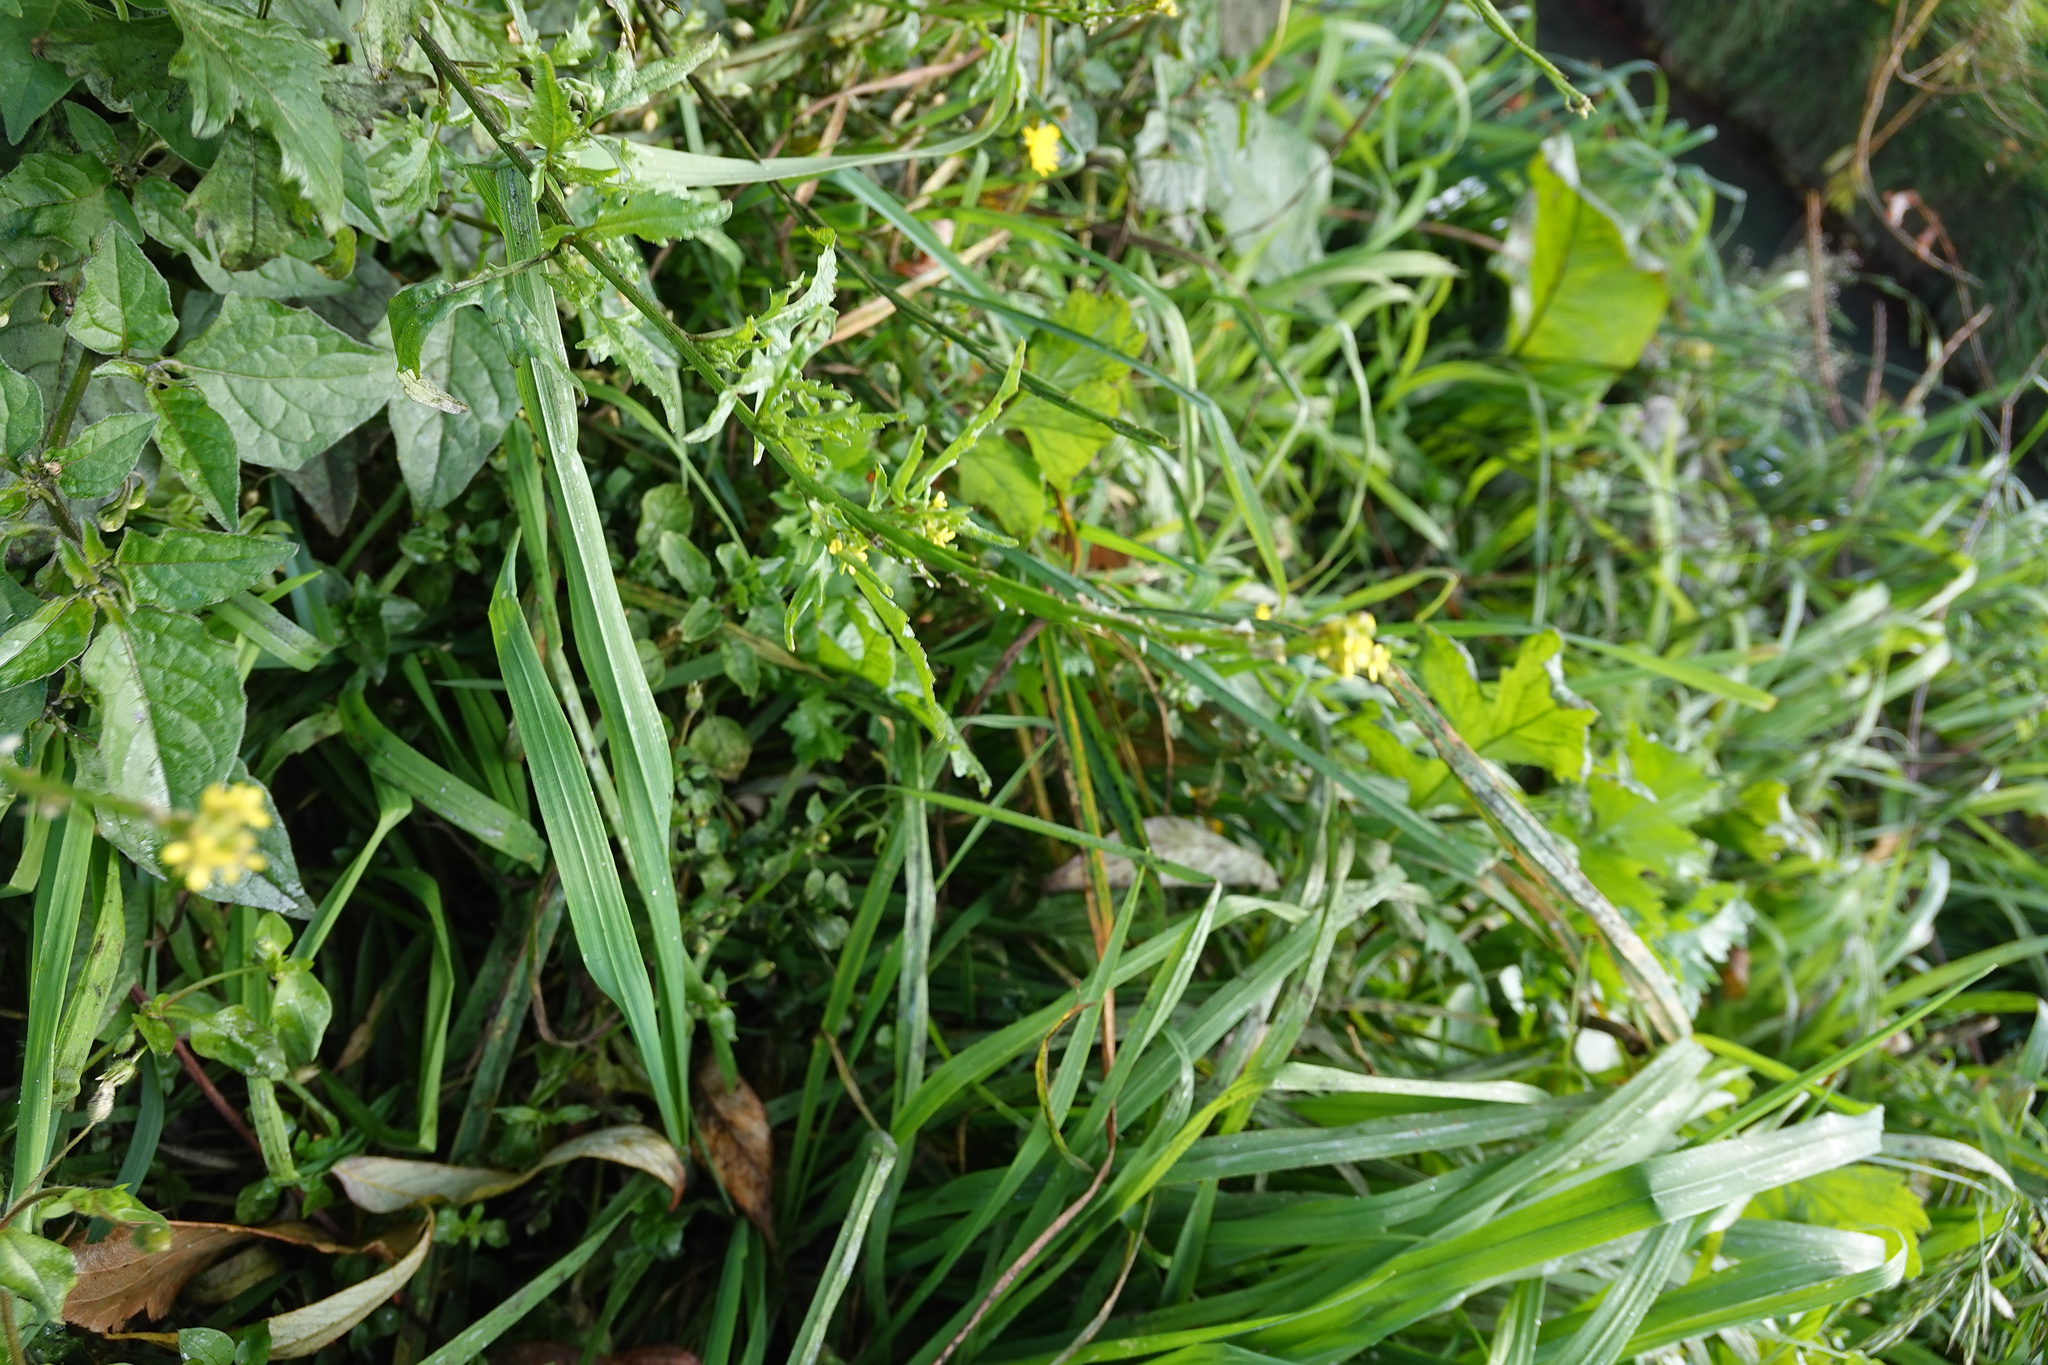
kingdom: Plantae
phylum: Tracheophyta
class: Magnoliopsida
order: Brassicales
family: Brassicaceae
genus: Sisymbrium
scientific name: Sisymbrium officinale
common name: Hedge mustard
